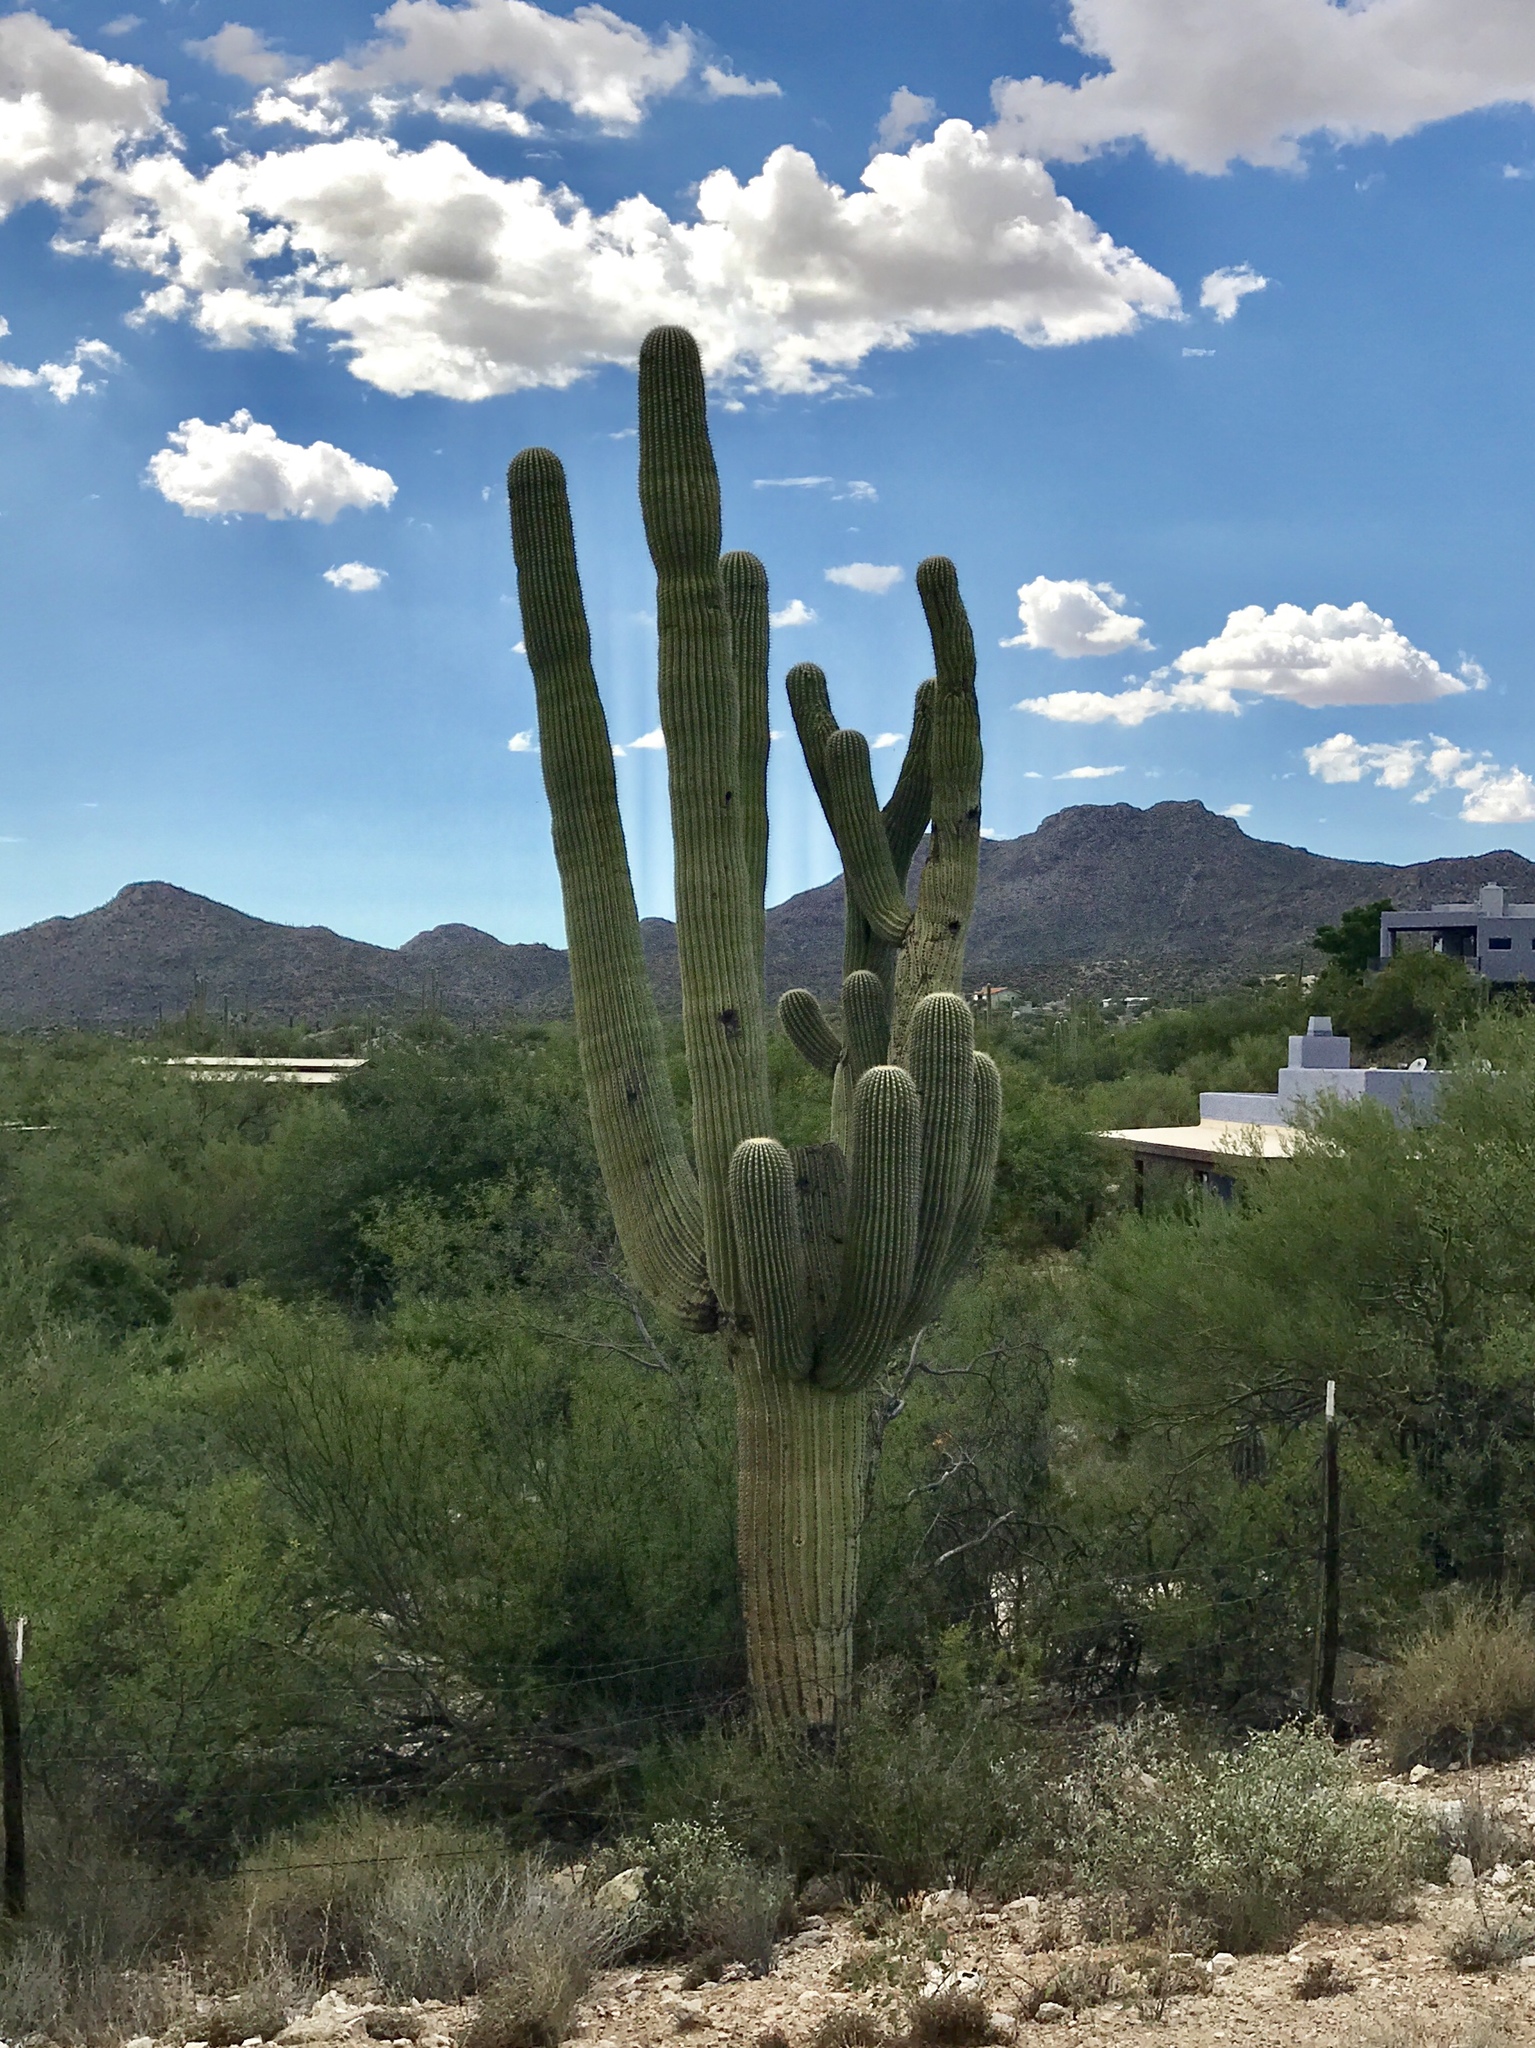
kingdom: Plantae
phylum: Tracheophyta
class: Magnoliopsida
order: Caryophyllales
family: Cactaceae
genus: Carnegiea
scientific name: Carnegiea gigantea
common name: Saguaro
